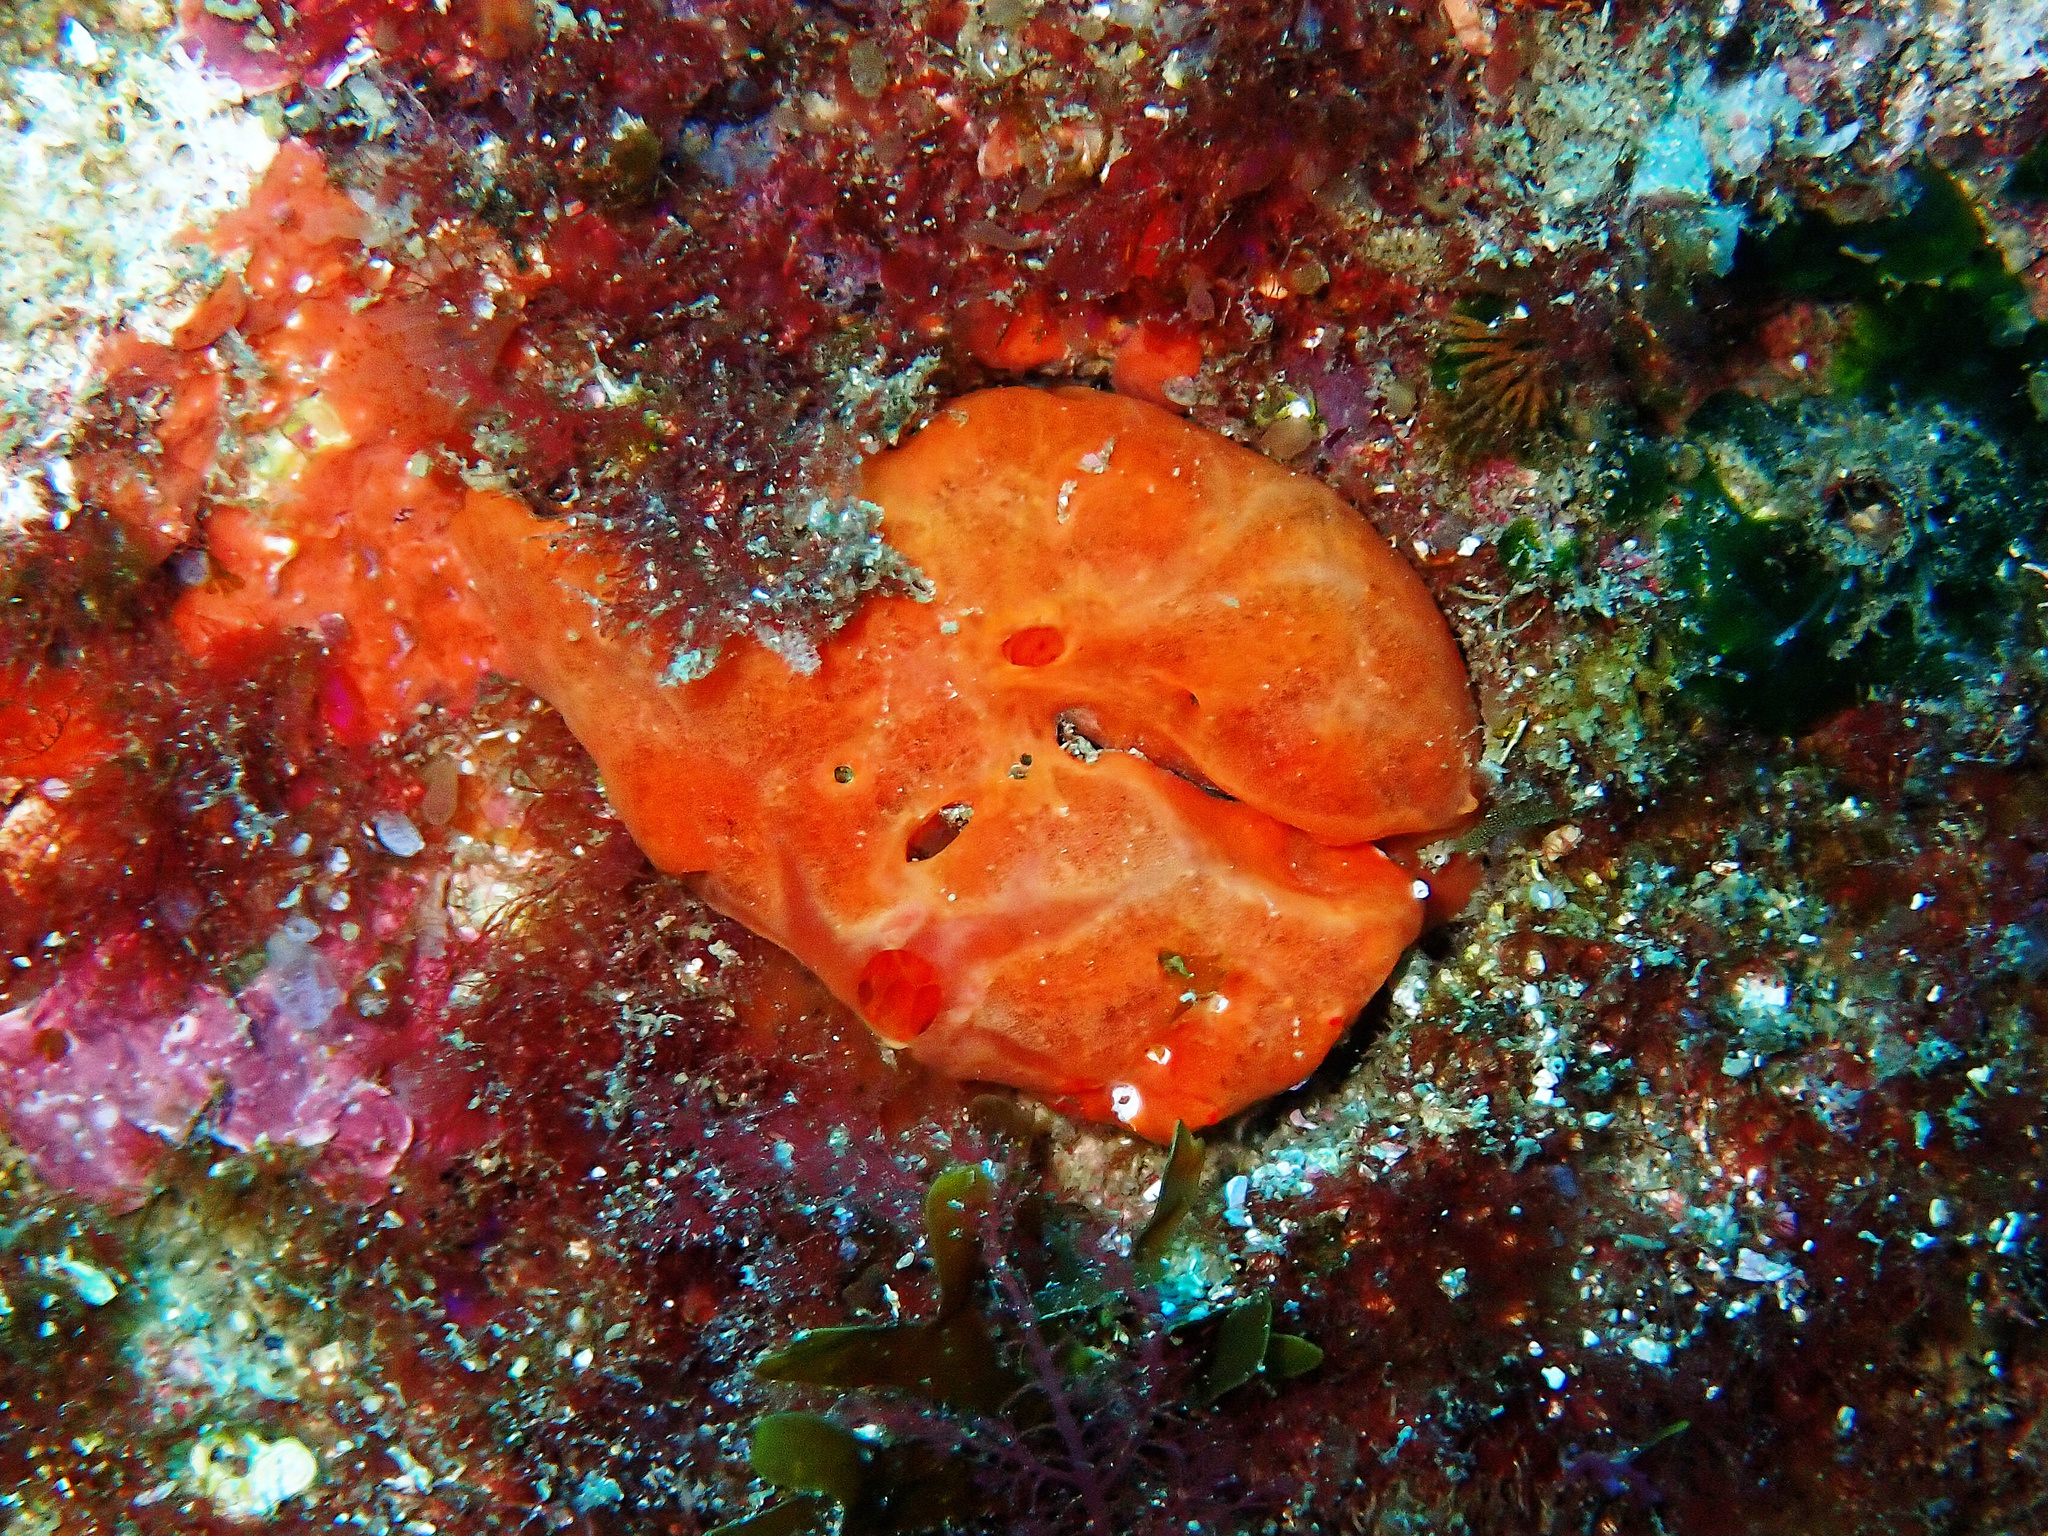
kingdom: Animalia
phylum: Porifera
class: Demospongiae
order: Poecilosclerida
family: Crambeidae
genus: Crambe
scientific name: Crambe crambe
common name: Orange-red encrusting sponge
